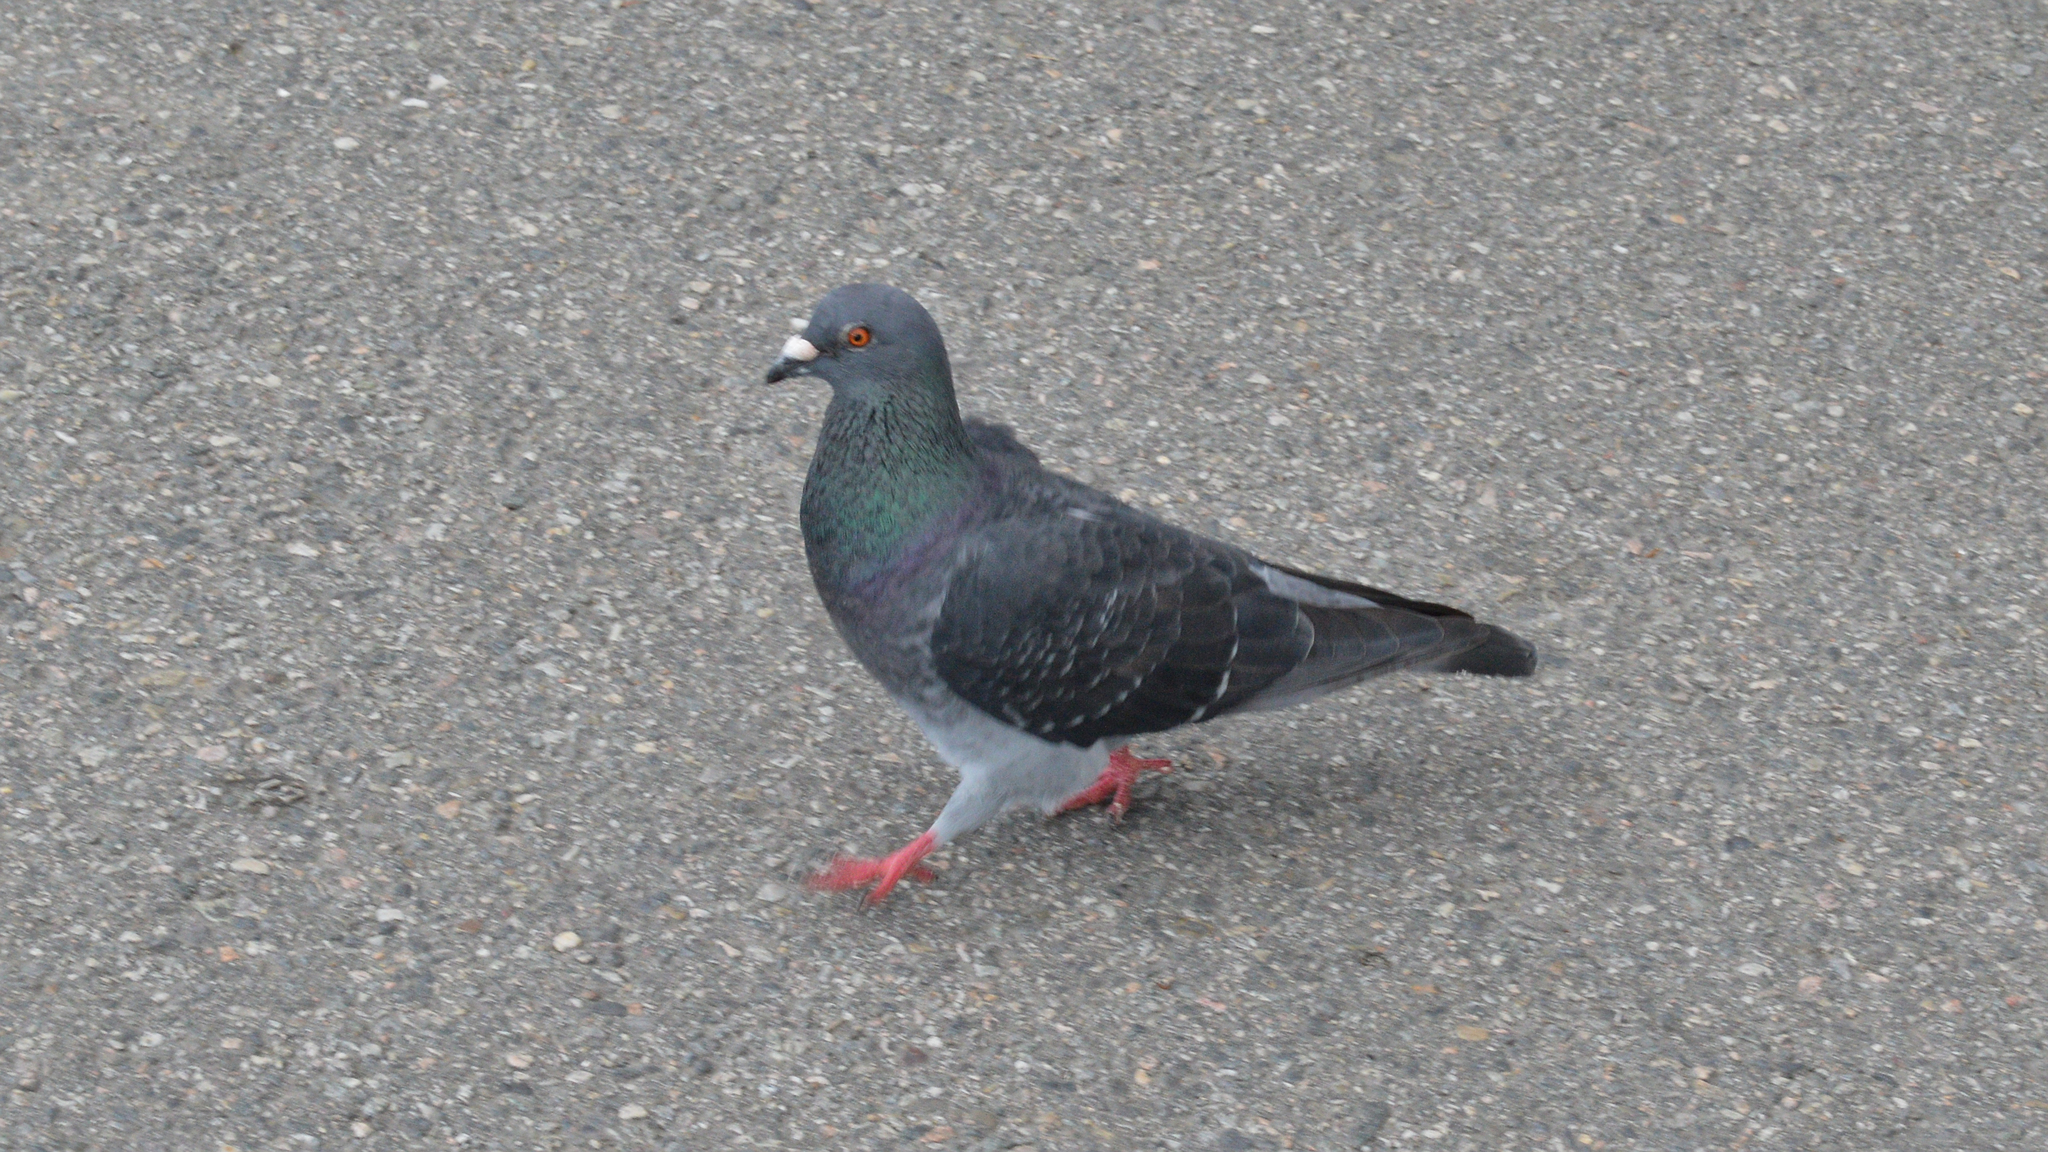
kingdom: Animalia
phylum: Chordata
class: Aves
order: Columbiformes
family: Columbidae
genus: Columba
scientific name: Columba livia
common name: Rock pigeon
